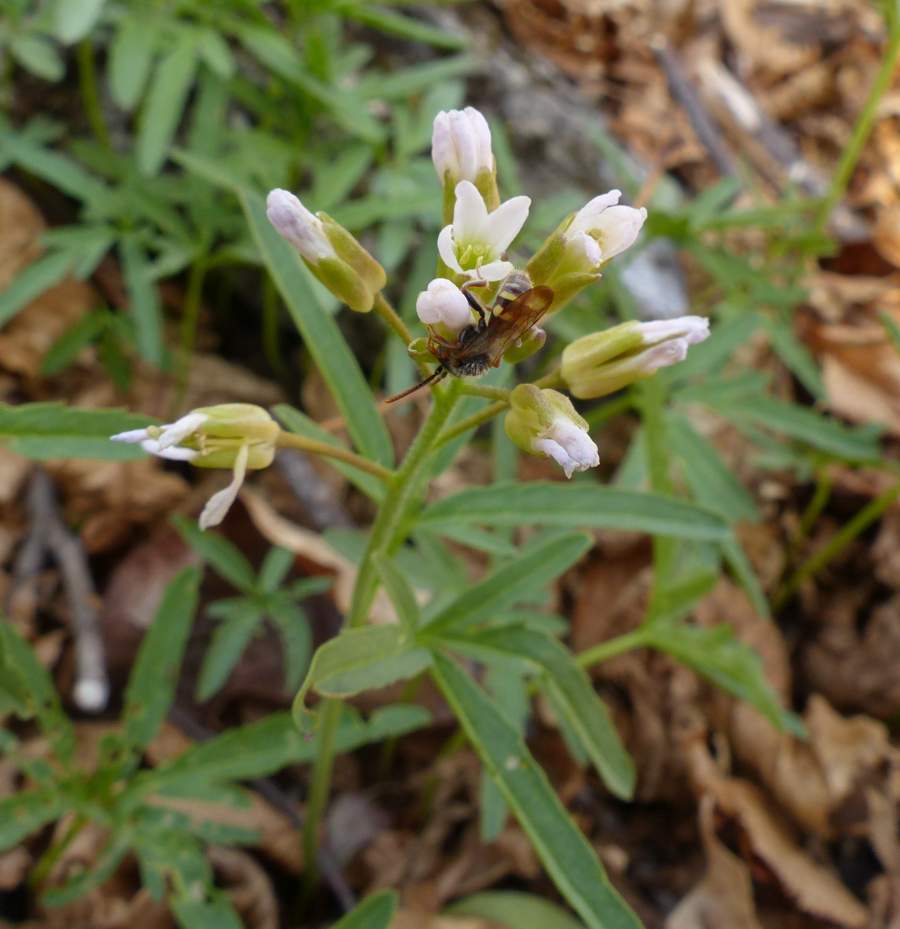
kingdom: Plantae
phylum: Tracheophyta
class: Magnoliopsida
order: Brassicales
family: Brassicaceae
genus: Cardamine
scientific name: Cardamine concatenata
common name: Cut-leaf toothcup
